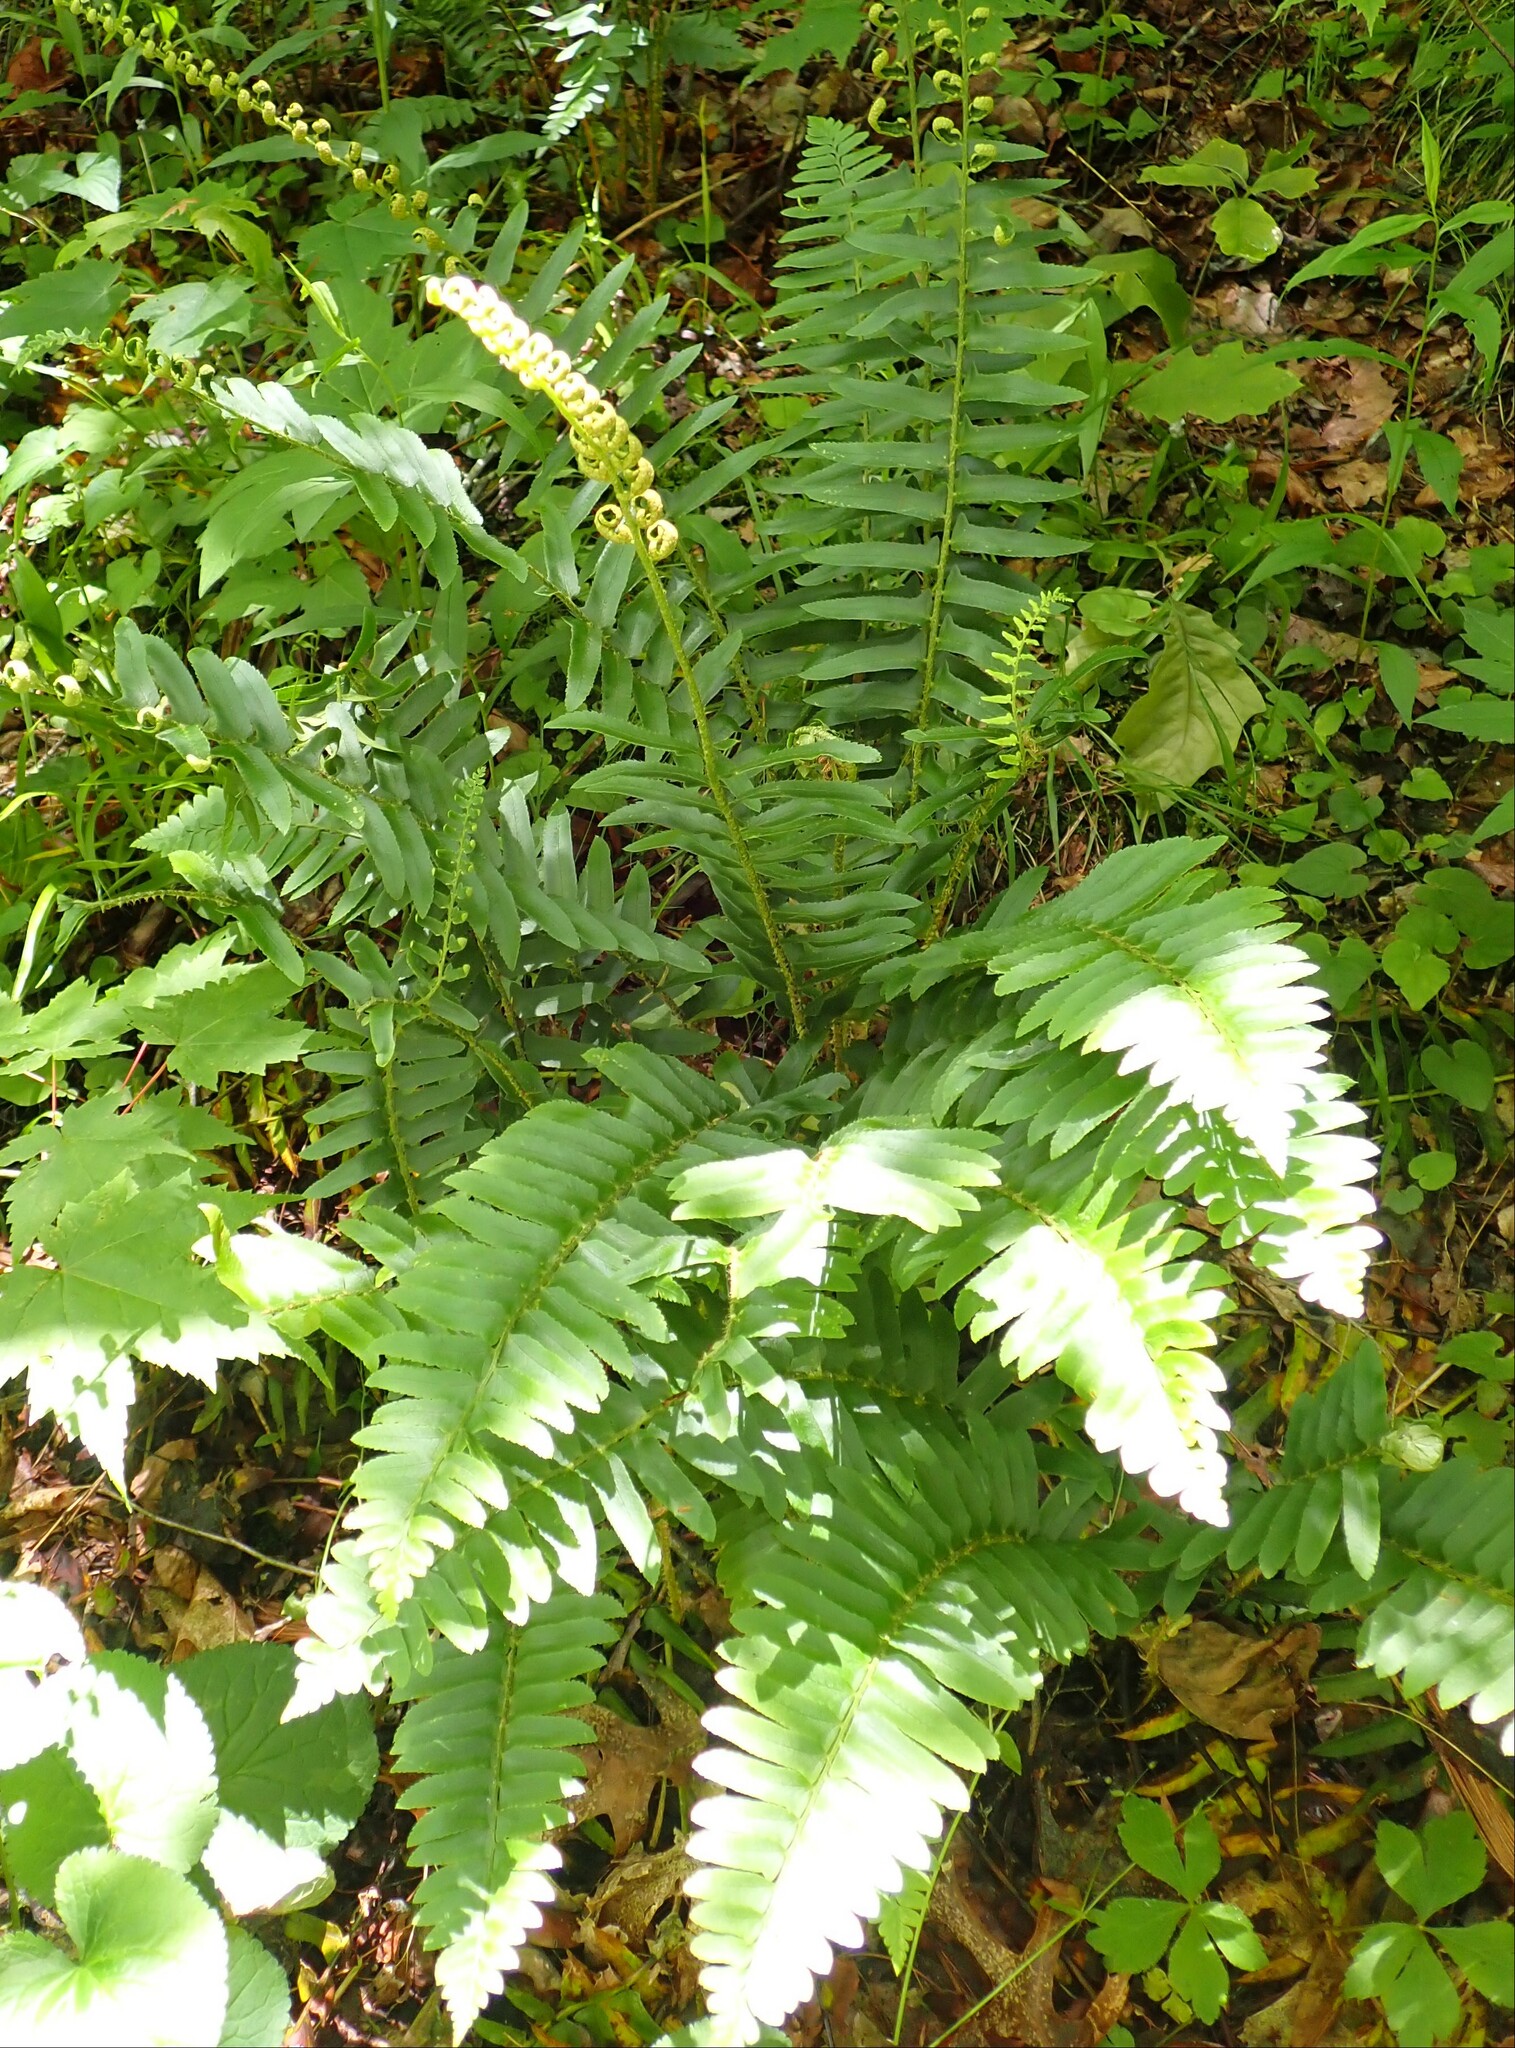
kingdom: Plantae
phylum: Tracheophyta
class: Polypodiopsida
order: Polypodiales
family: Dryopteridaceae
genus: Polystichum
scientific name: Polystichum acrostichoides
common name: Christmas fern
